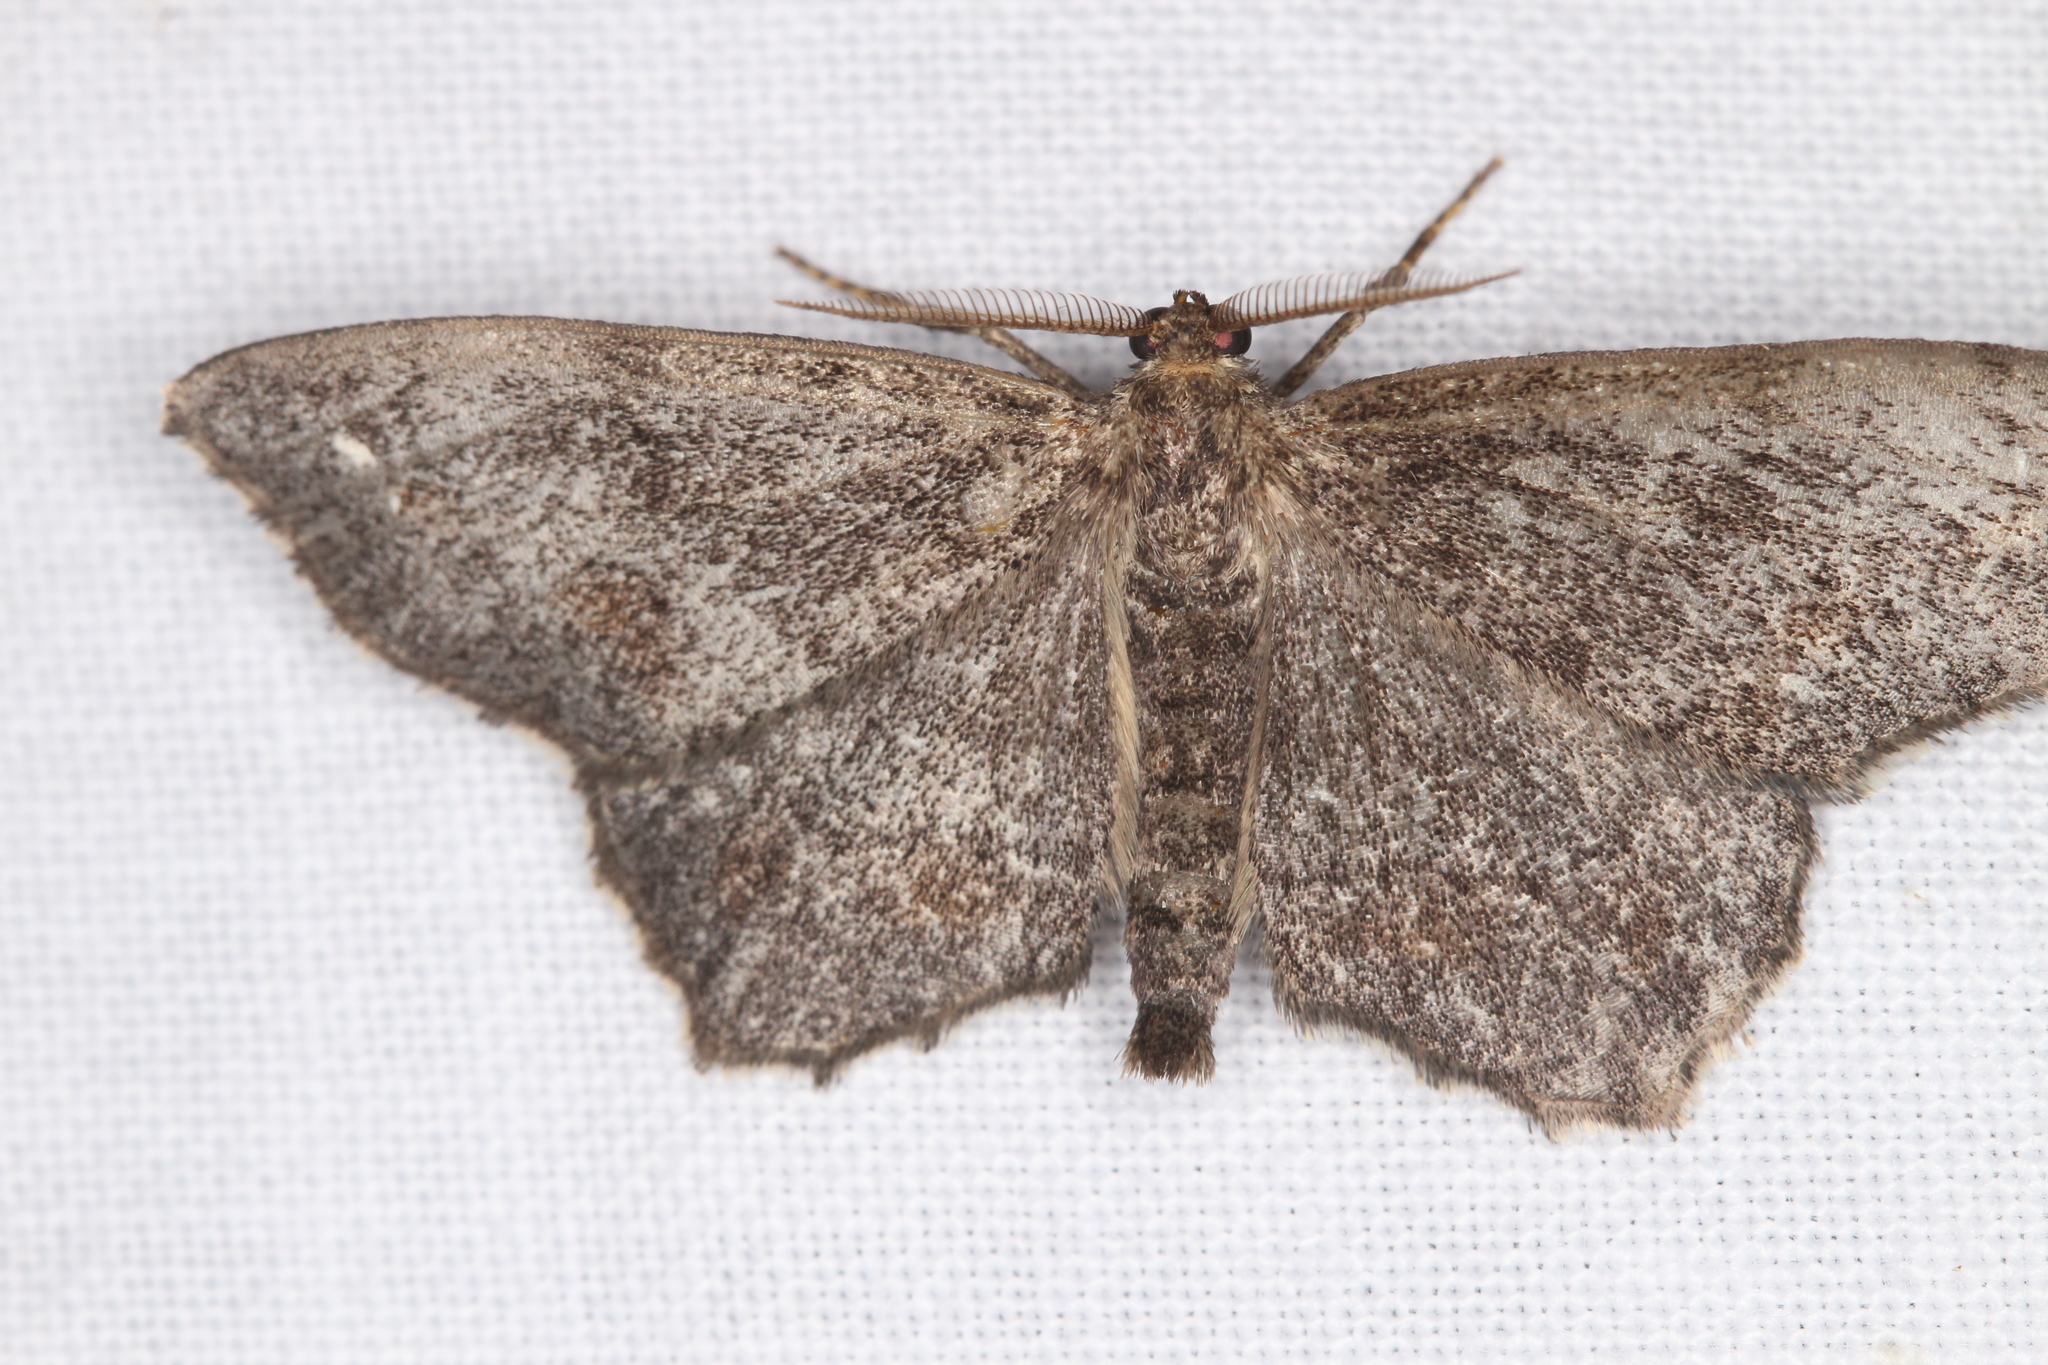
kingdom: Animalia
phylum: Arthropoda
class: Insecta
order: Lepidoptera
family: Geometridae
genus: Hypagyrtis
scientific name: Hypagyrtis unipunctata
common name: One-spotted variant
